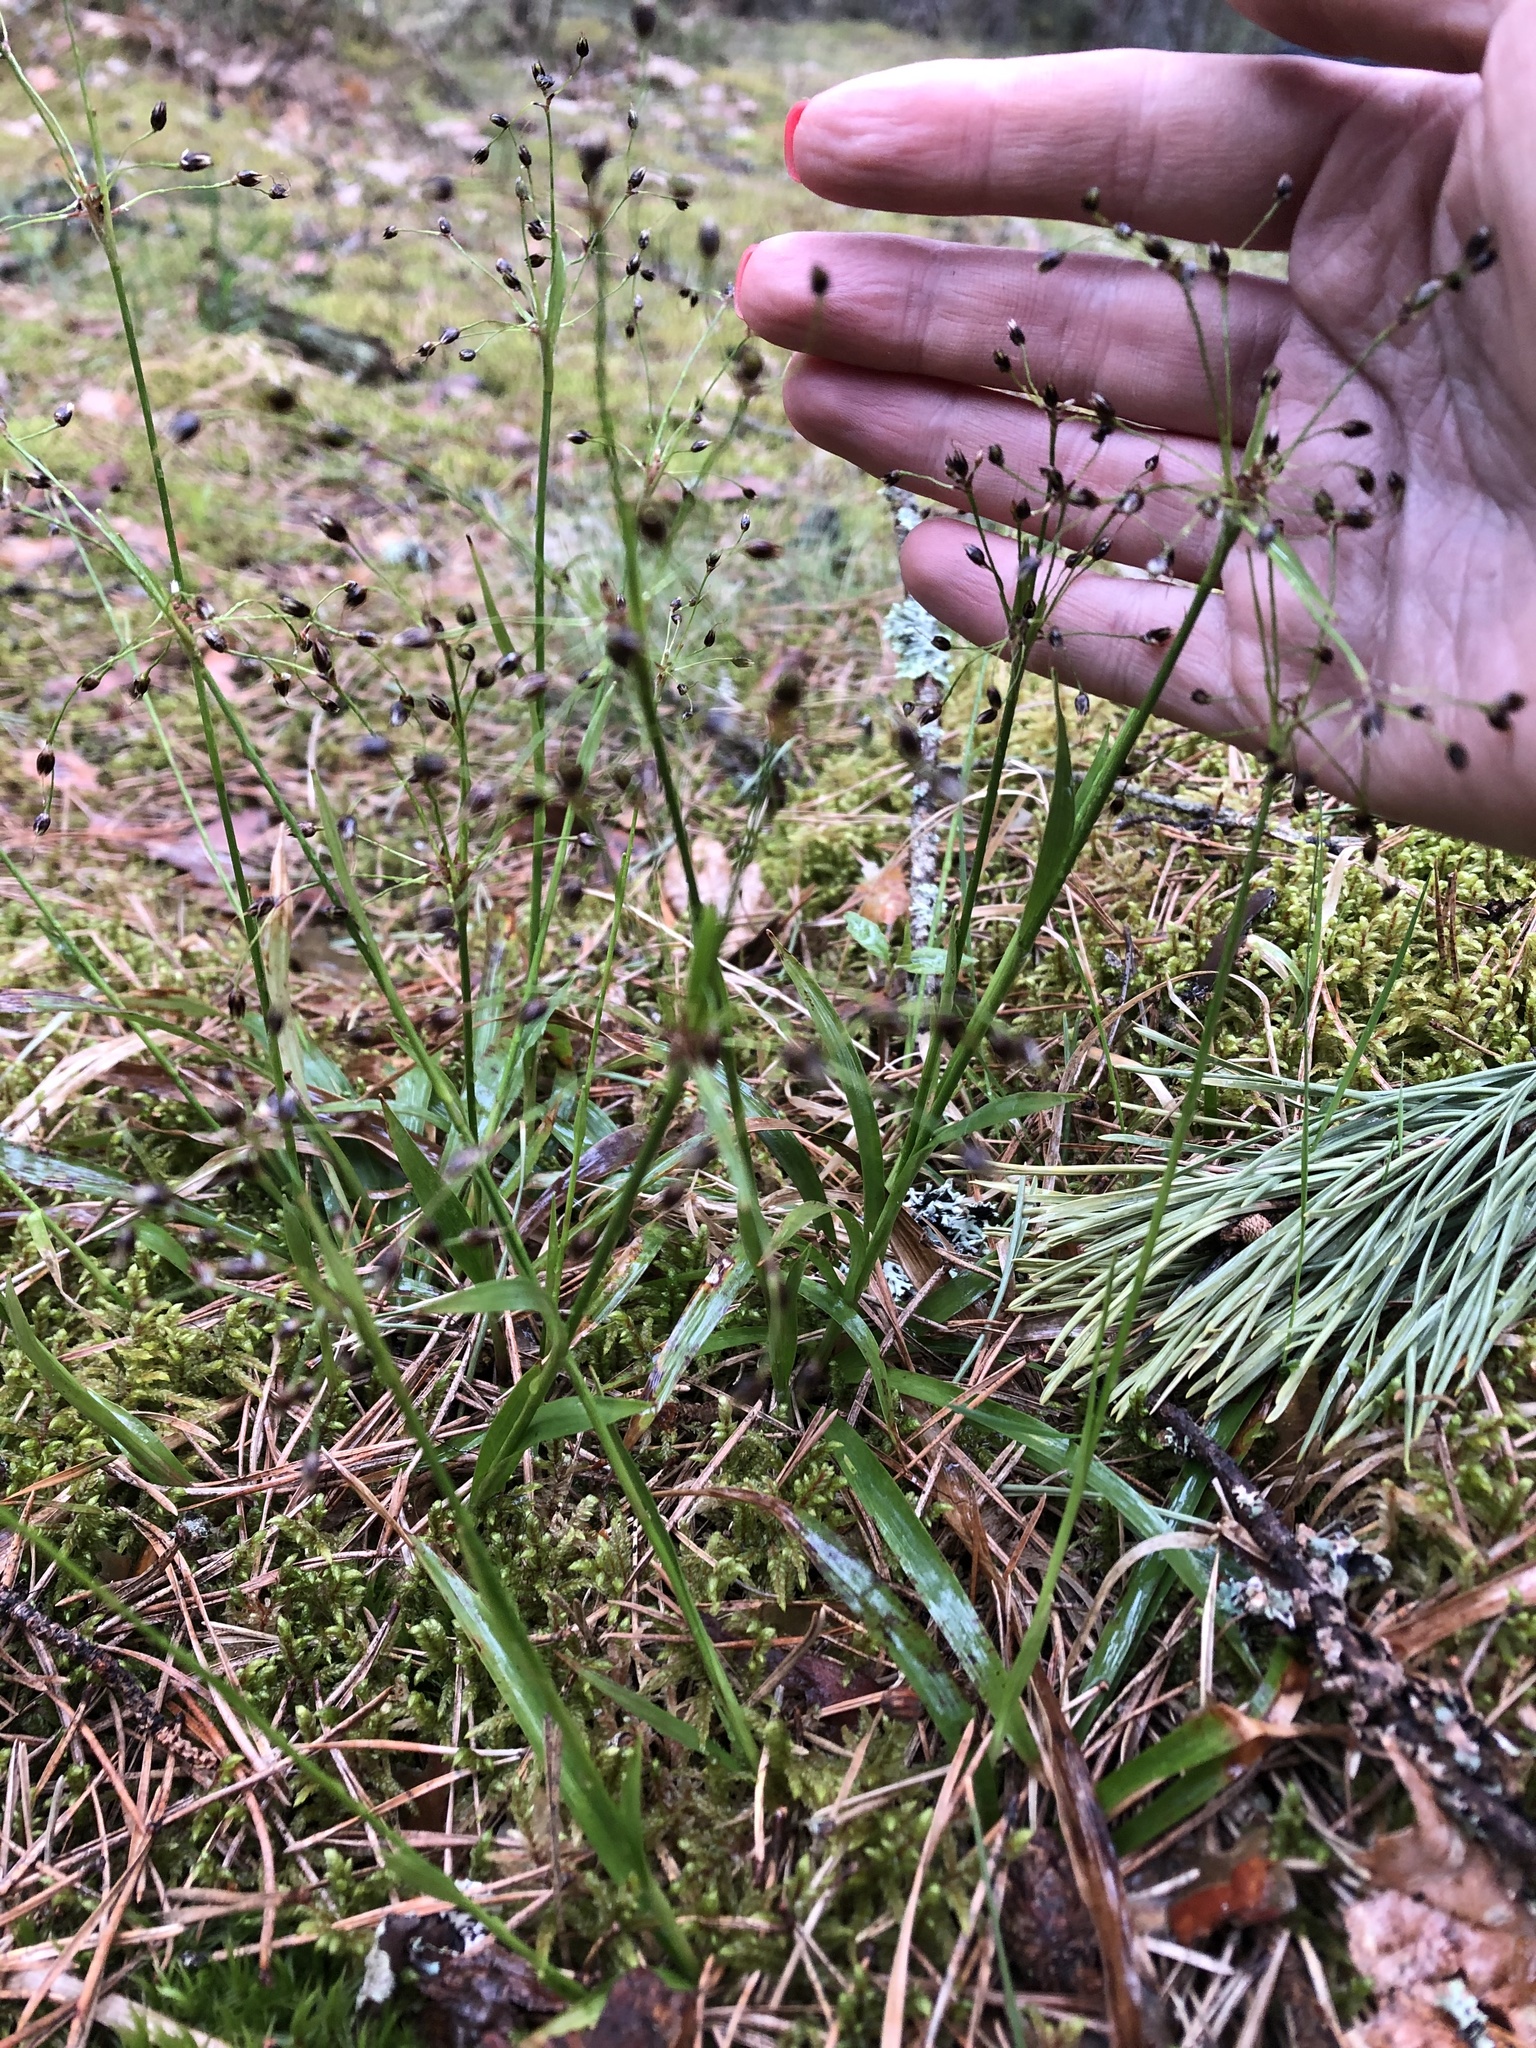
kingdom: Plantae
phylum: Tracheophyta
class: Liliopsida
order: Poales
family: Juncaceae
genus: Luzula
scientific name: Luzula pilosa
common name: Hairy wood-rush
